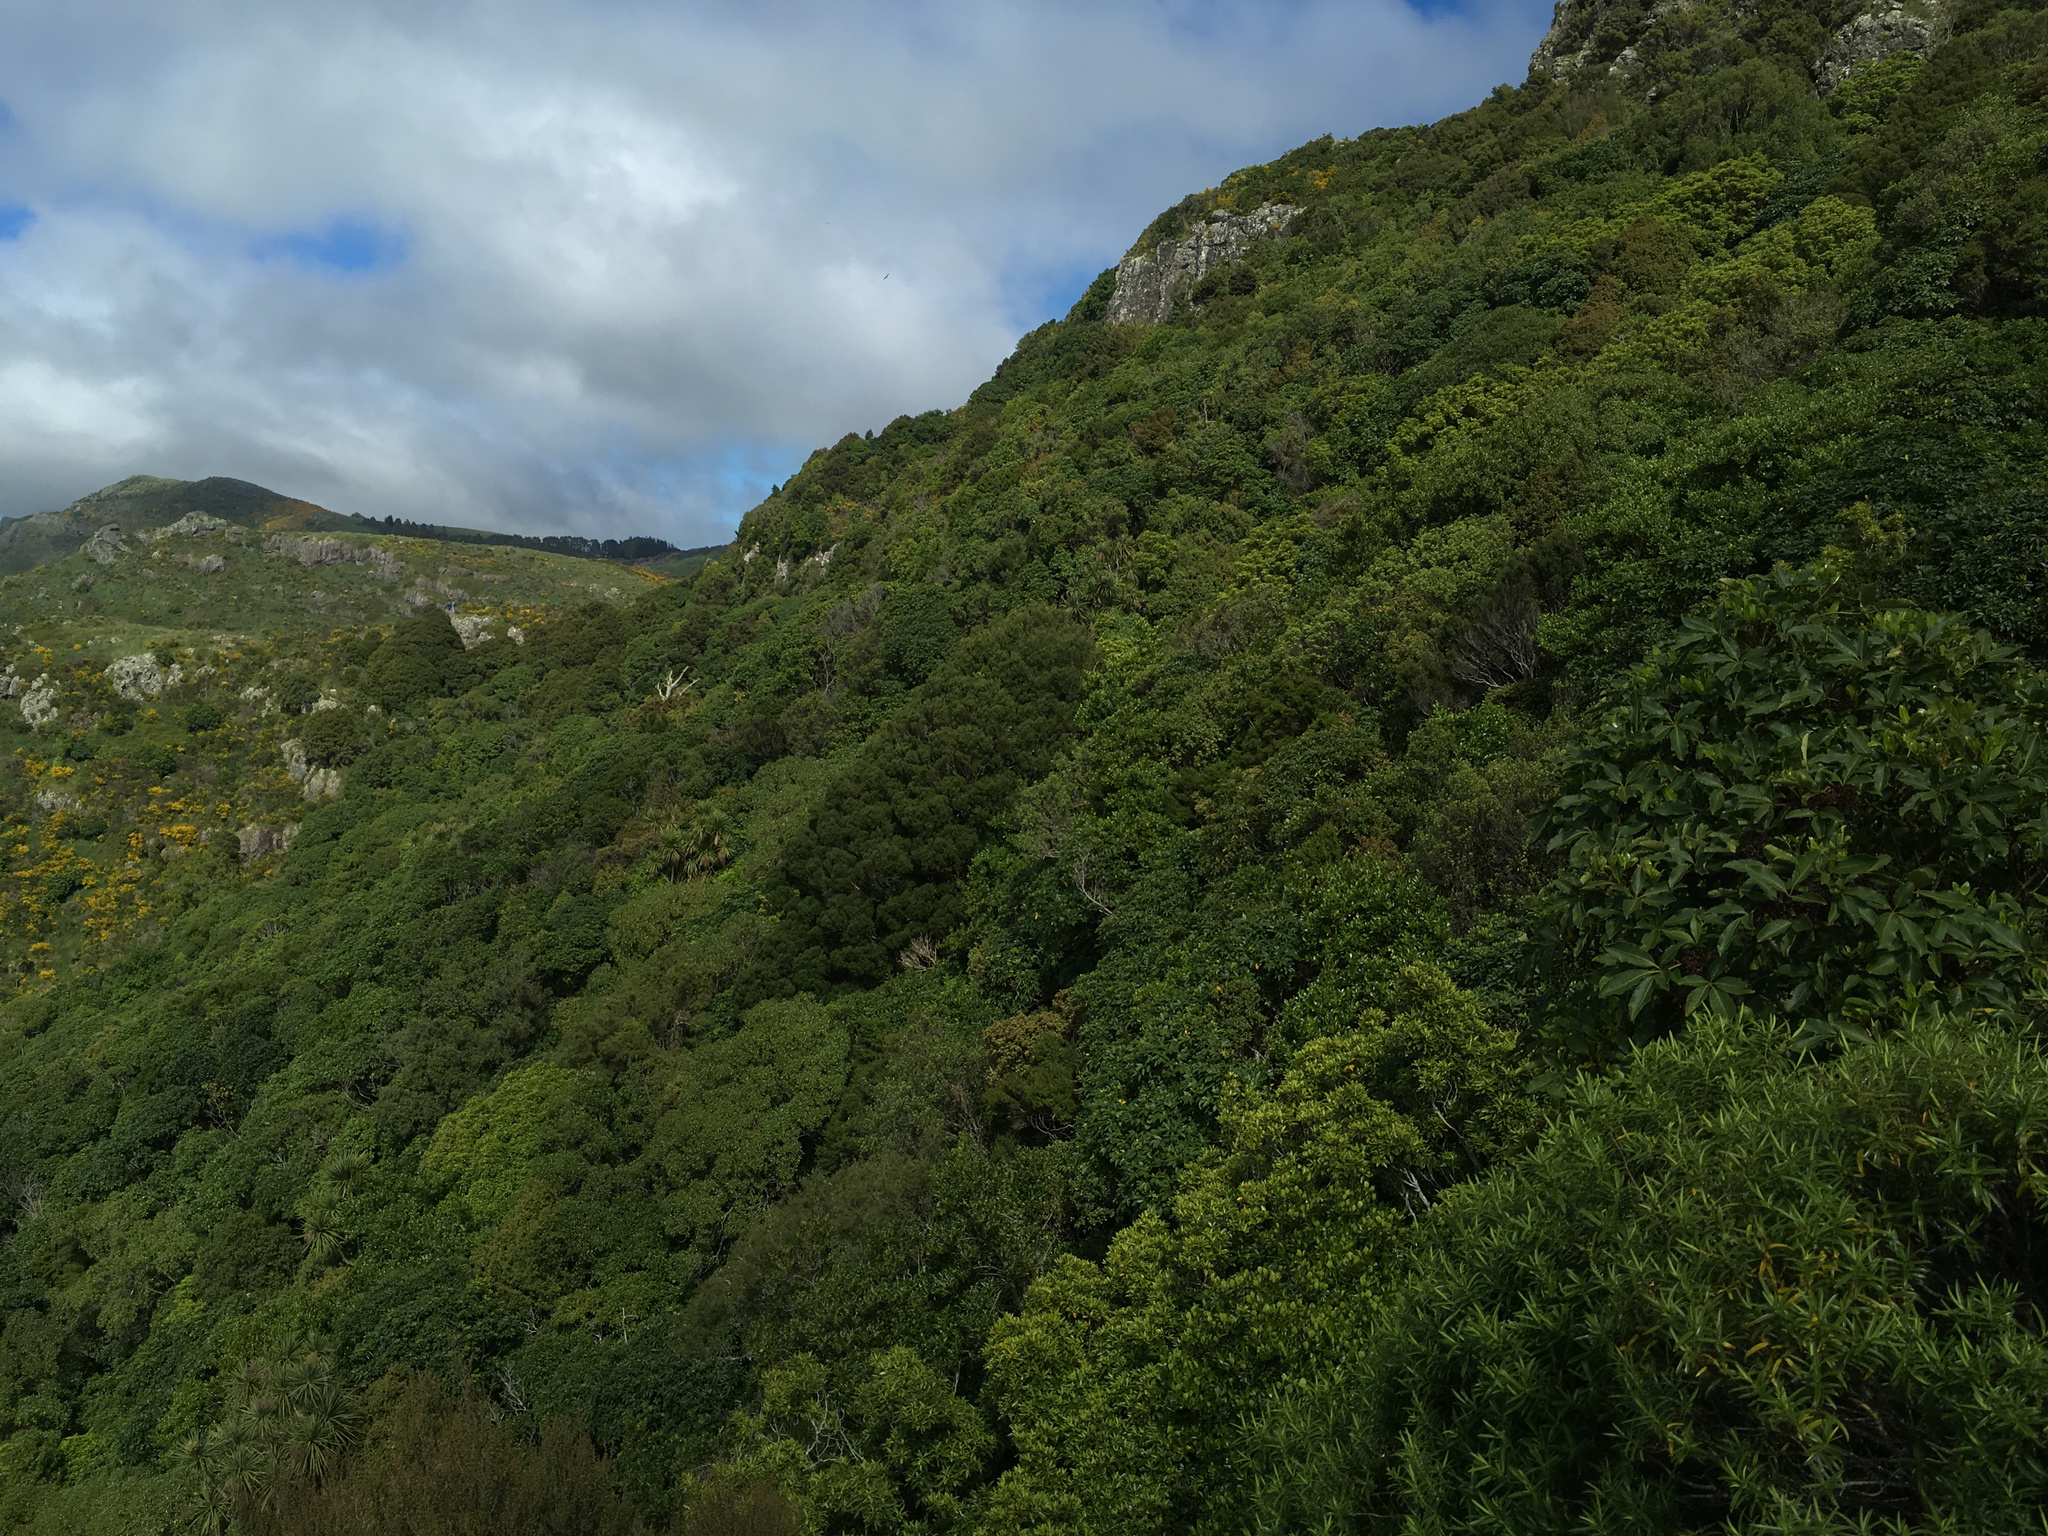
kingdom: Plantae
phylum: Tracheophyta
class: Pinopsida
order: Pinales
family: Podocarpaceae
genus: Prumnopitys
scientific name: Prumnopitys taxifolia
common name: Matai
